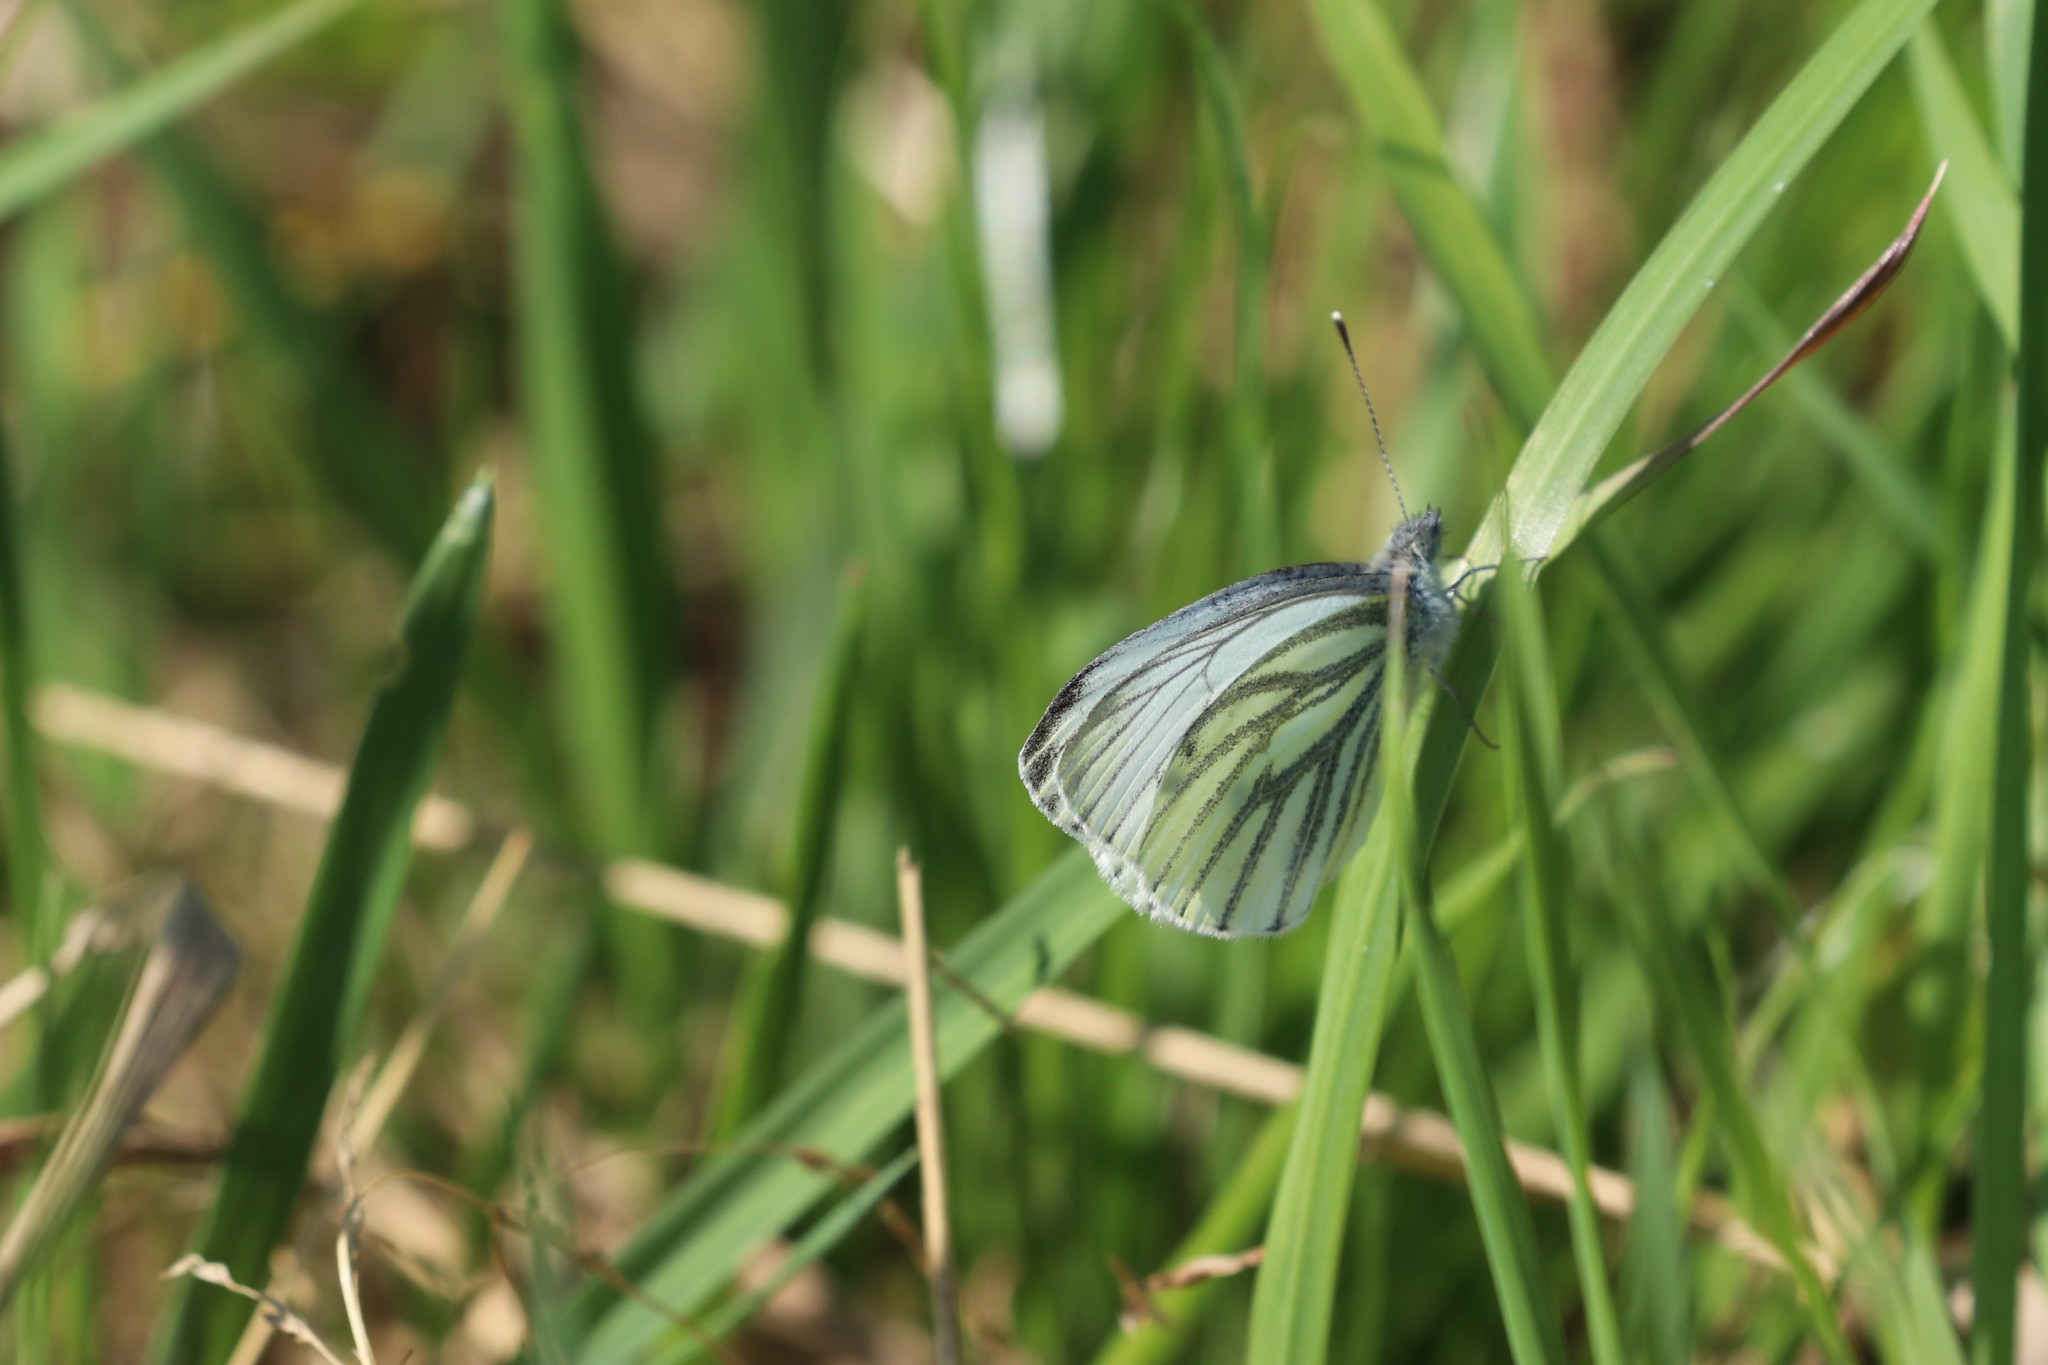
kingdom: Animalia
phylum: Arthropoda
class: Insecta
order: Lepidoptera
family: Pieridae
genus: Pieris
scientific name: Pieris napi
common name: Green-veined white
